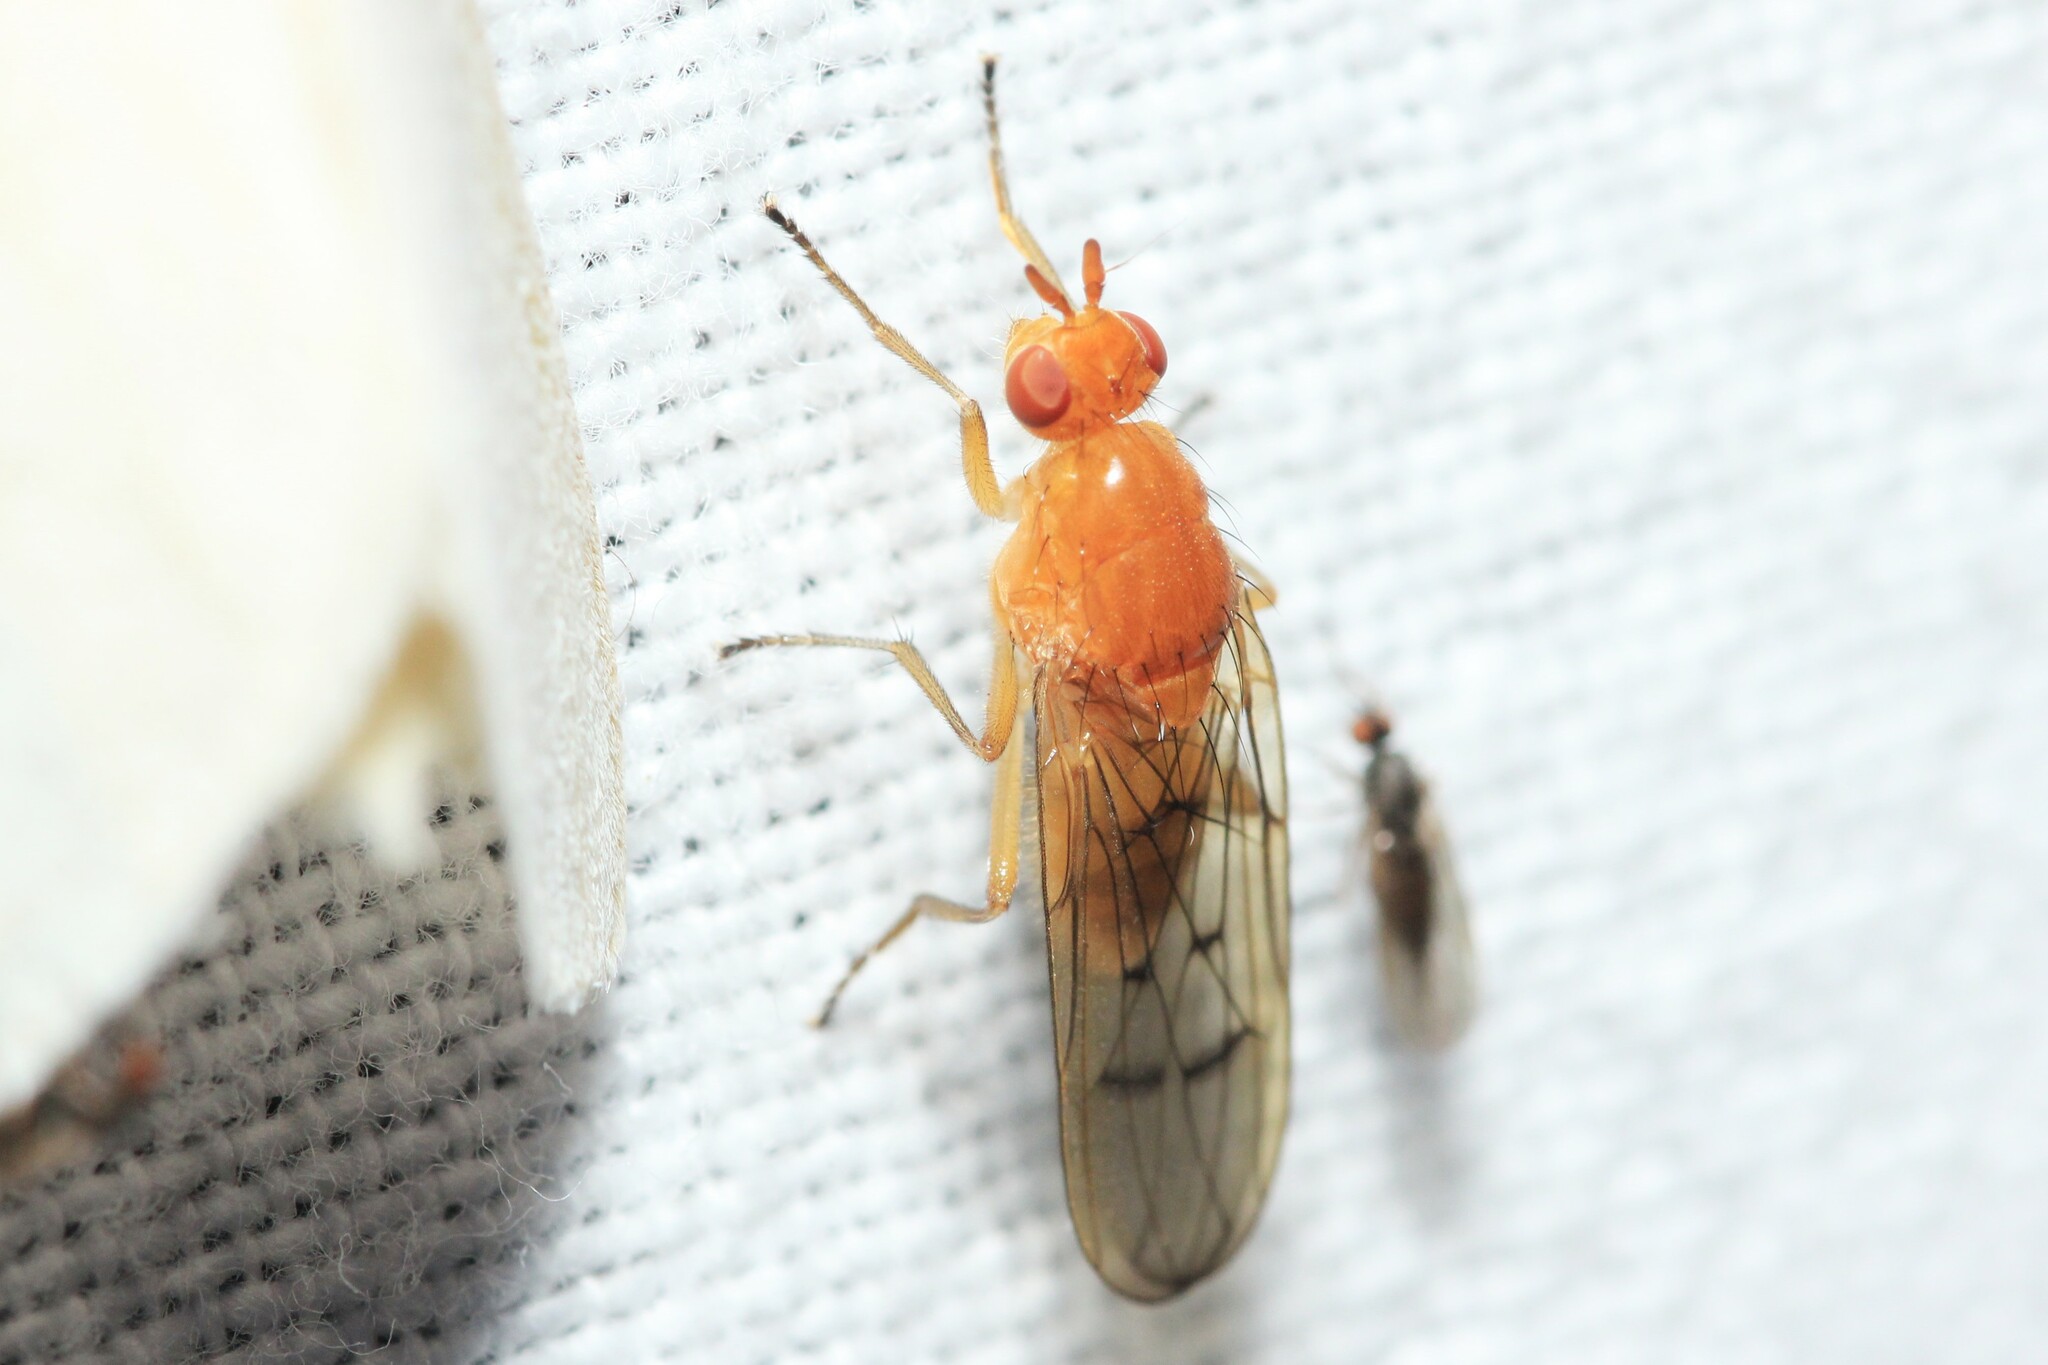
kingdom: Animalia
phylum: Arthropoda
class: Insecta
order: Diptera
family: Dryomyzidae
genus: Dryope
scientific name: Dryope decrepita
